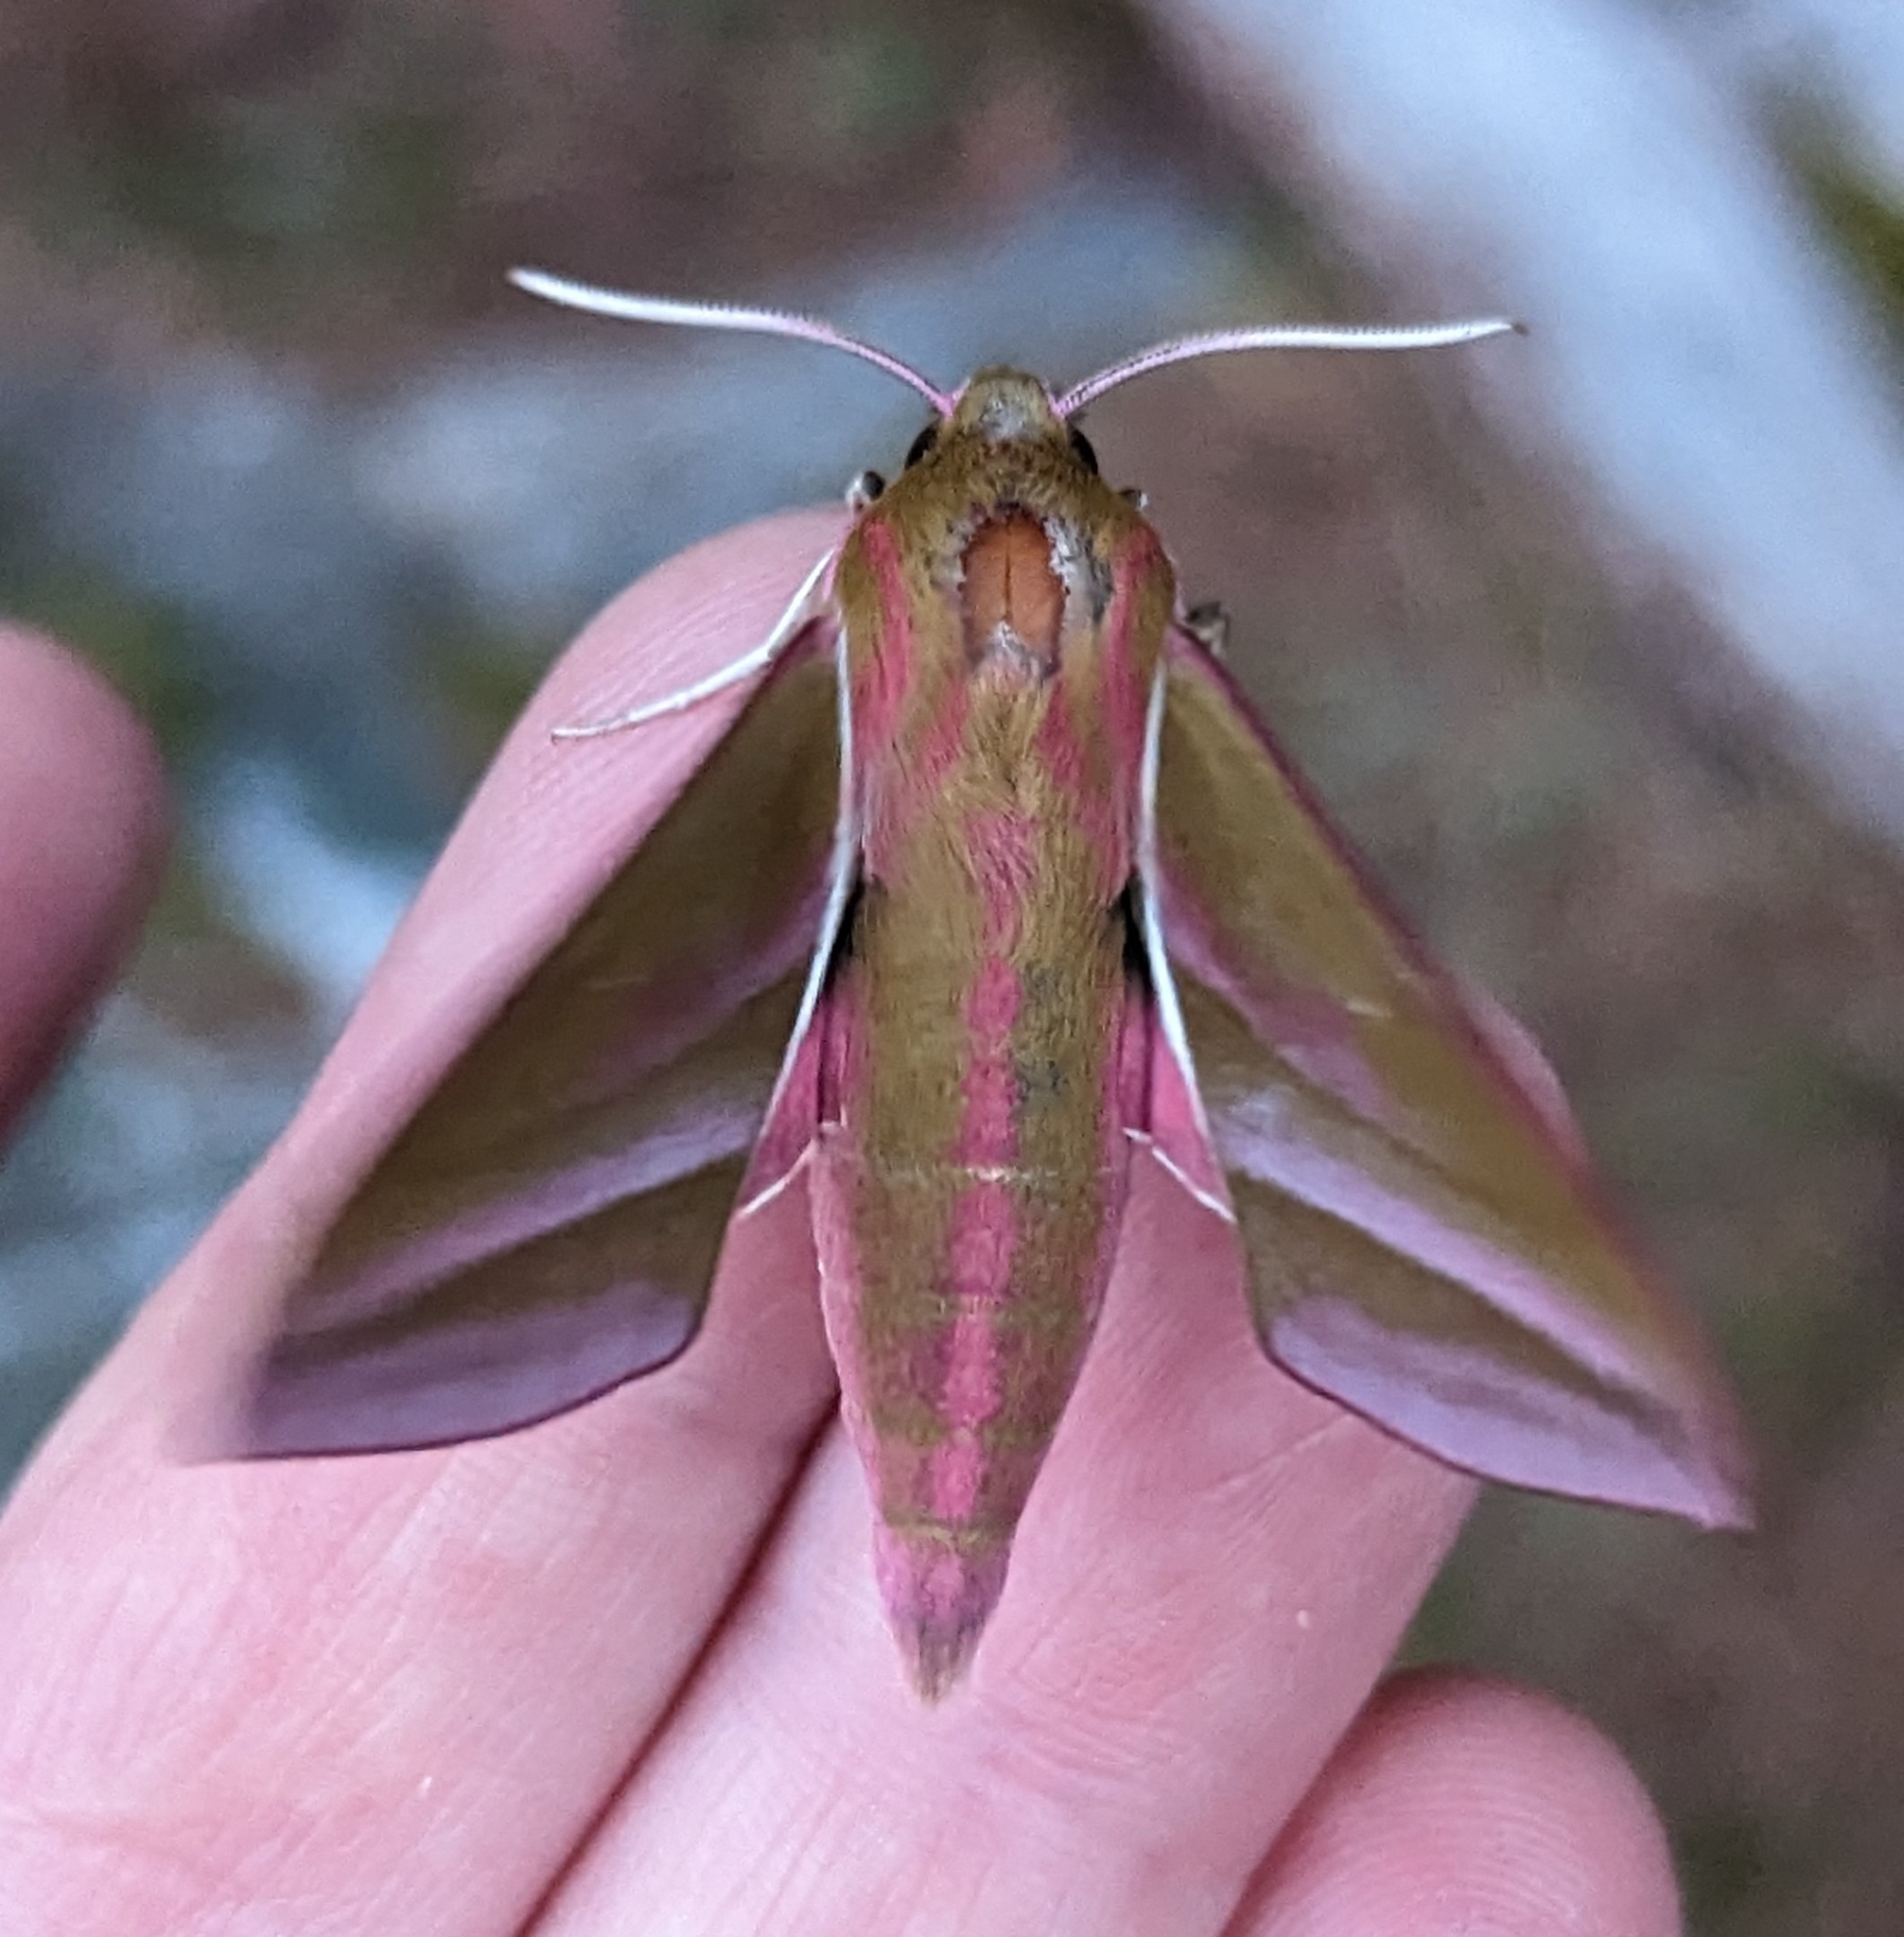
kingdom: Animalia
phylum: Arthropoda
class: Insecta
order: Lepidoptera
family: Sphingidae
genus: Deilephila
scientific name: Deilephila elpenor
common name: Elephant hawk-moth
